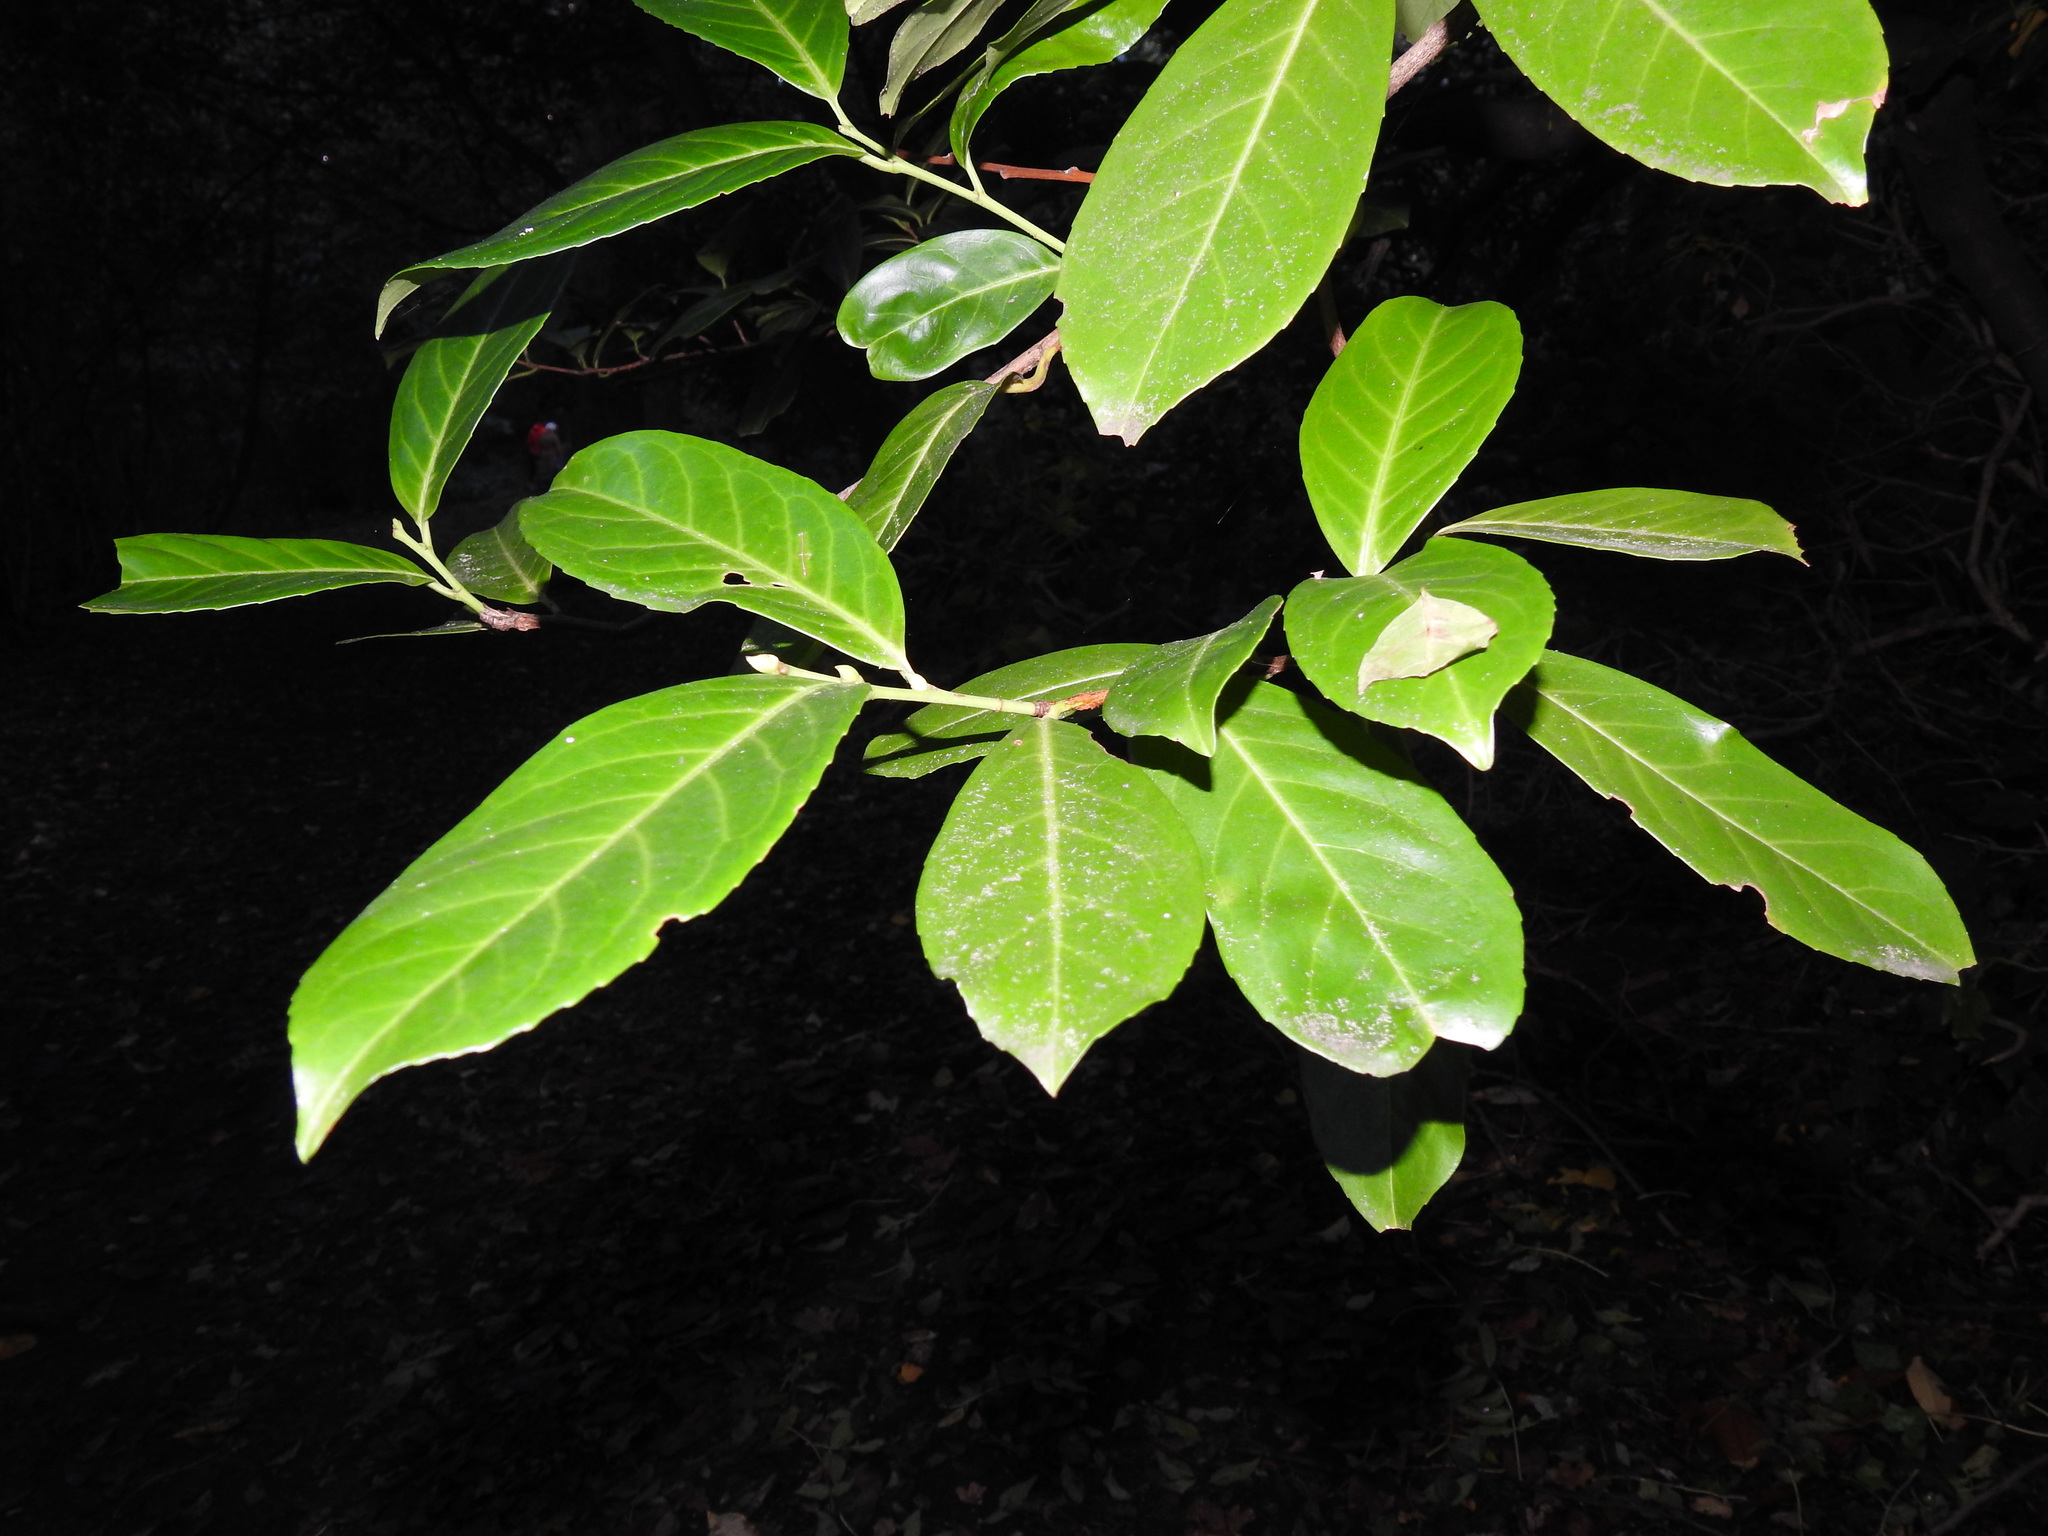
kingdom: Plantae
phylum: Tracheophyta
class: Magnoliopsida
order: Rosales
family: Rosaceae
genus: Prunus
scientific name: Prunus laurocerasus
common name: Cherry laurel
